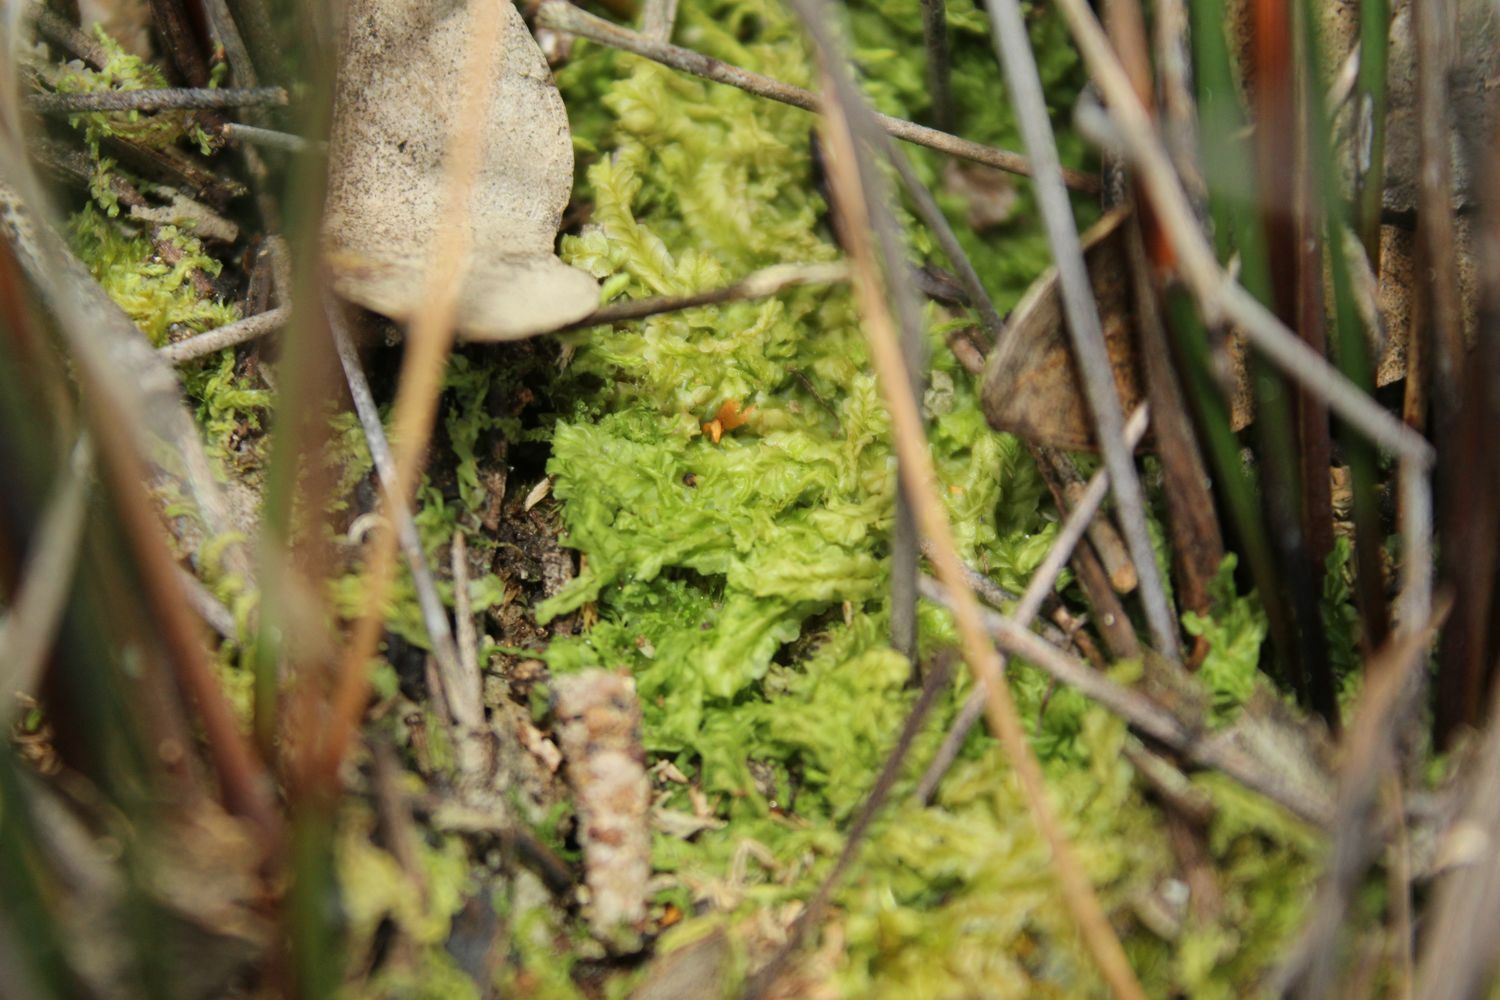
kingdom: Plantae
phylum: Marchantiophyta
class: Jungermanniopsida
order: Jungermanniales
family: Lophocoleaceae
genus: Lophocolea
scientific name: Lophocolea semiteres
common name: Southern crestwort
